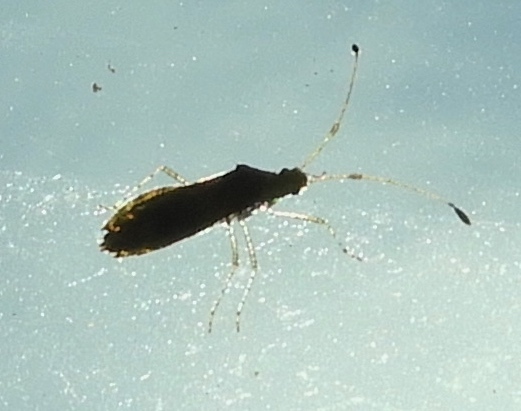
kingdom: Animalia
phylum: Arthropoda
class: Insecta
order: Hemiptera
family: Coreidae
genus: Madura
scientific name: Madura
